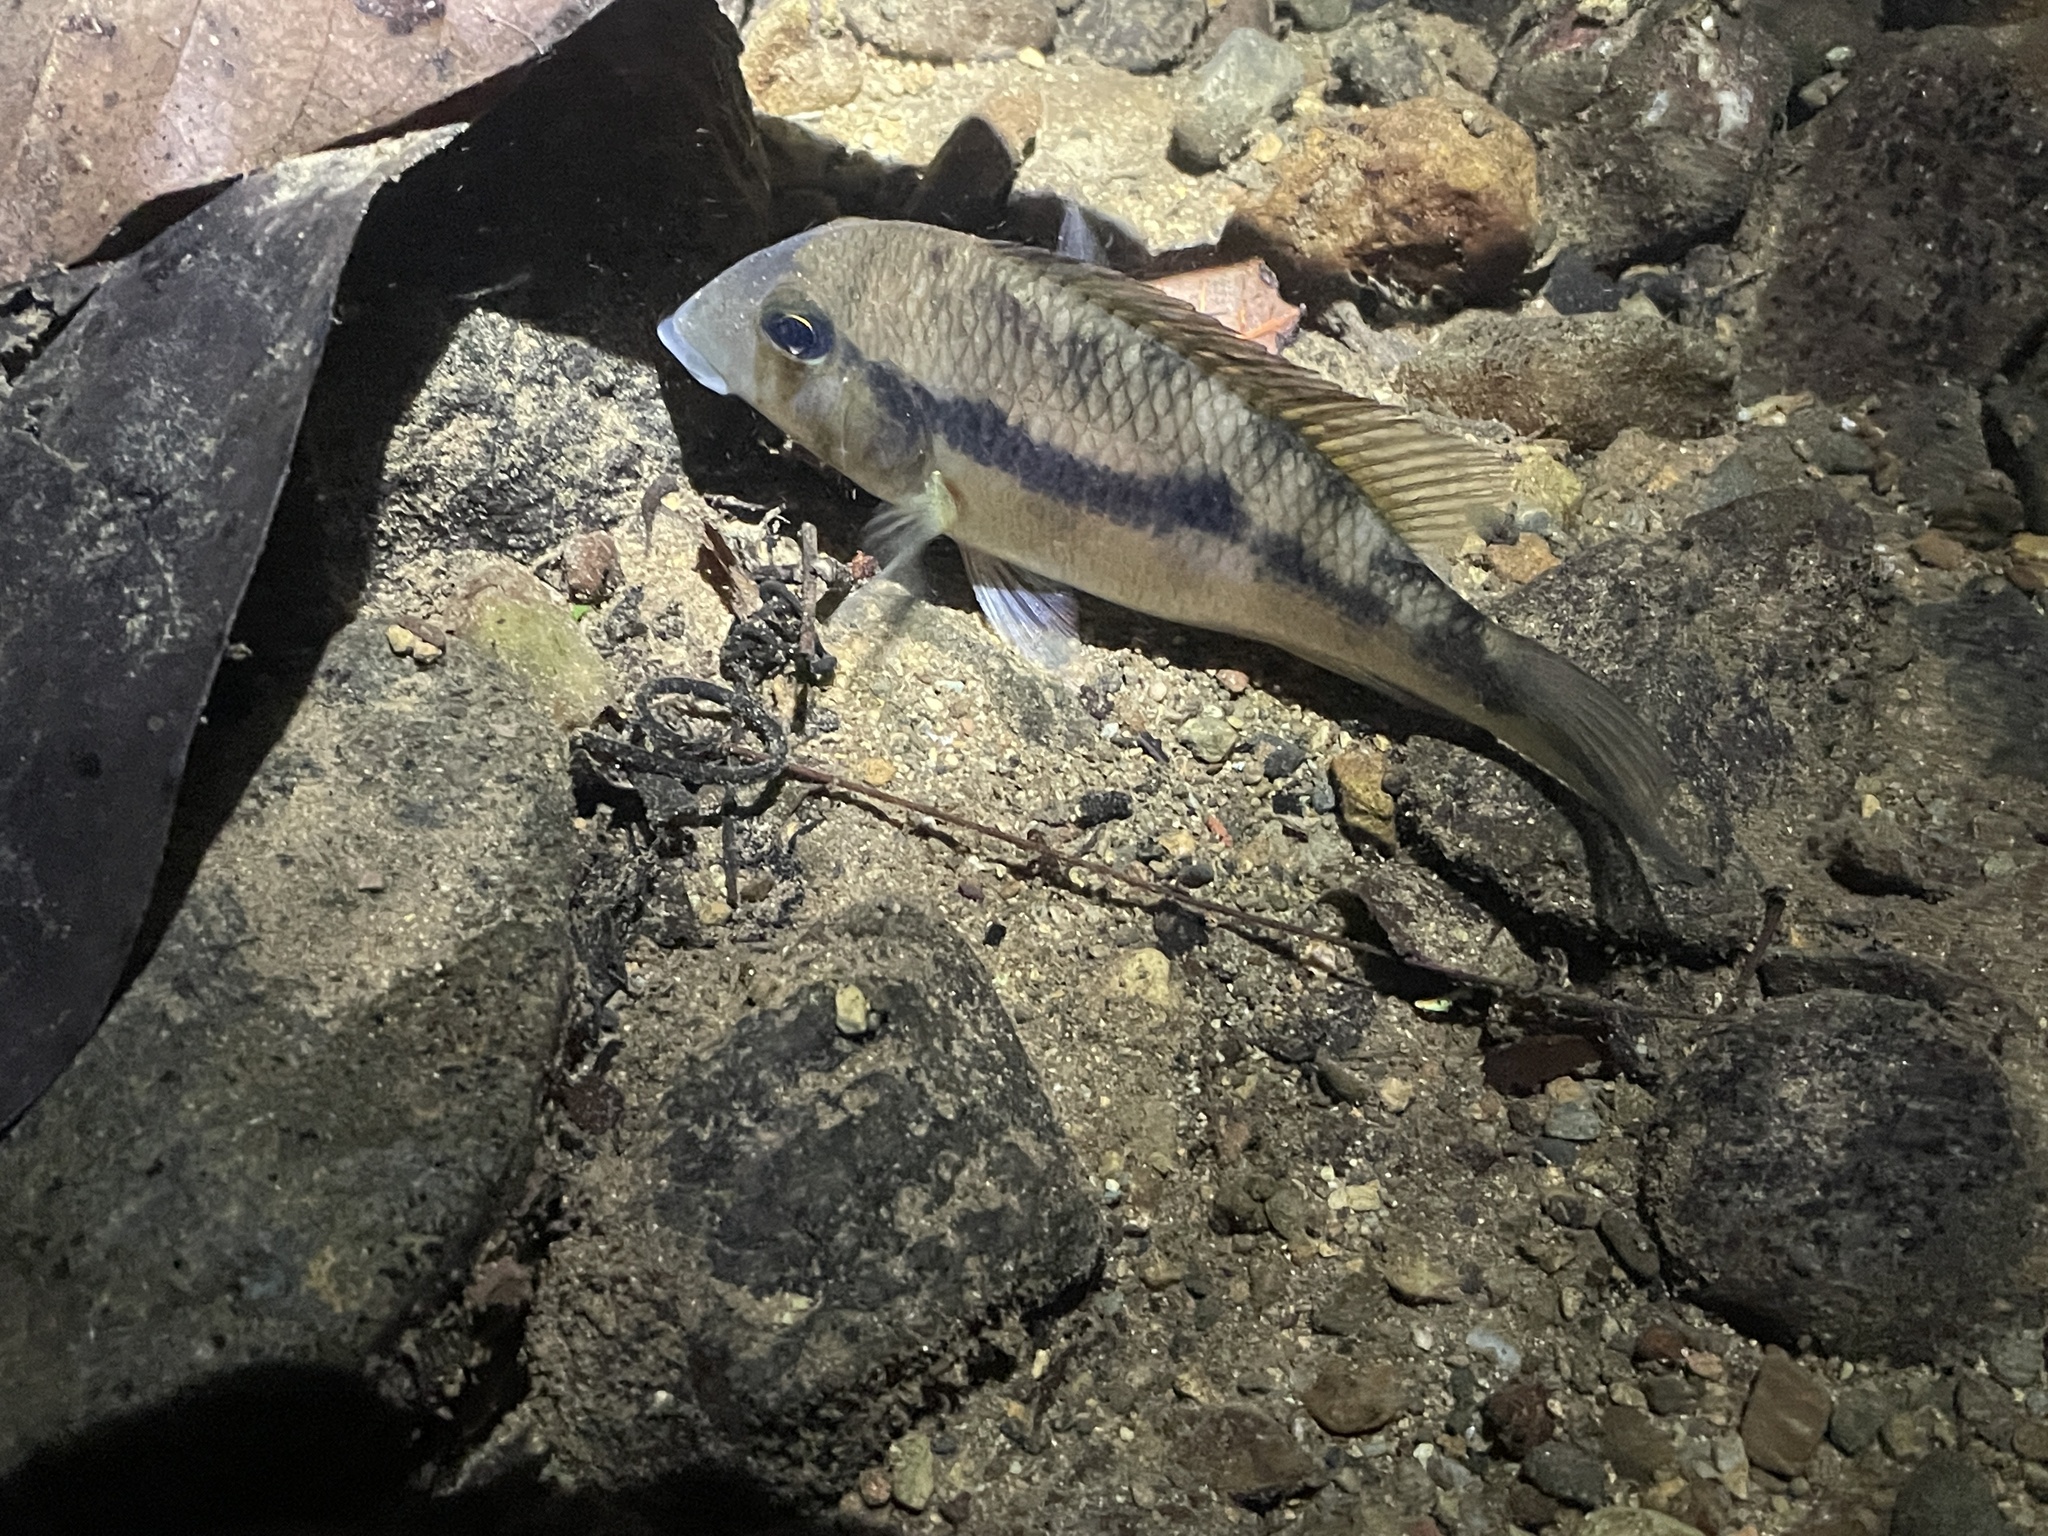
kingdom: Animalia
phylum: Chordata
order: Perciformes
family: Cichlidae
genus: Geophagus
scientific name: Geophagus crassilabris
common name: Panamanian eartheater
